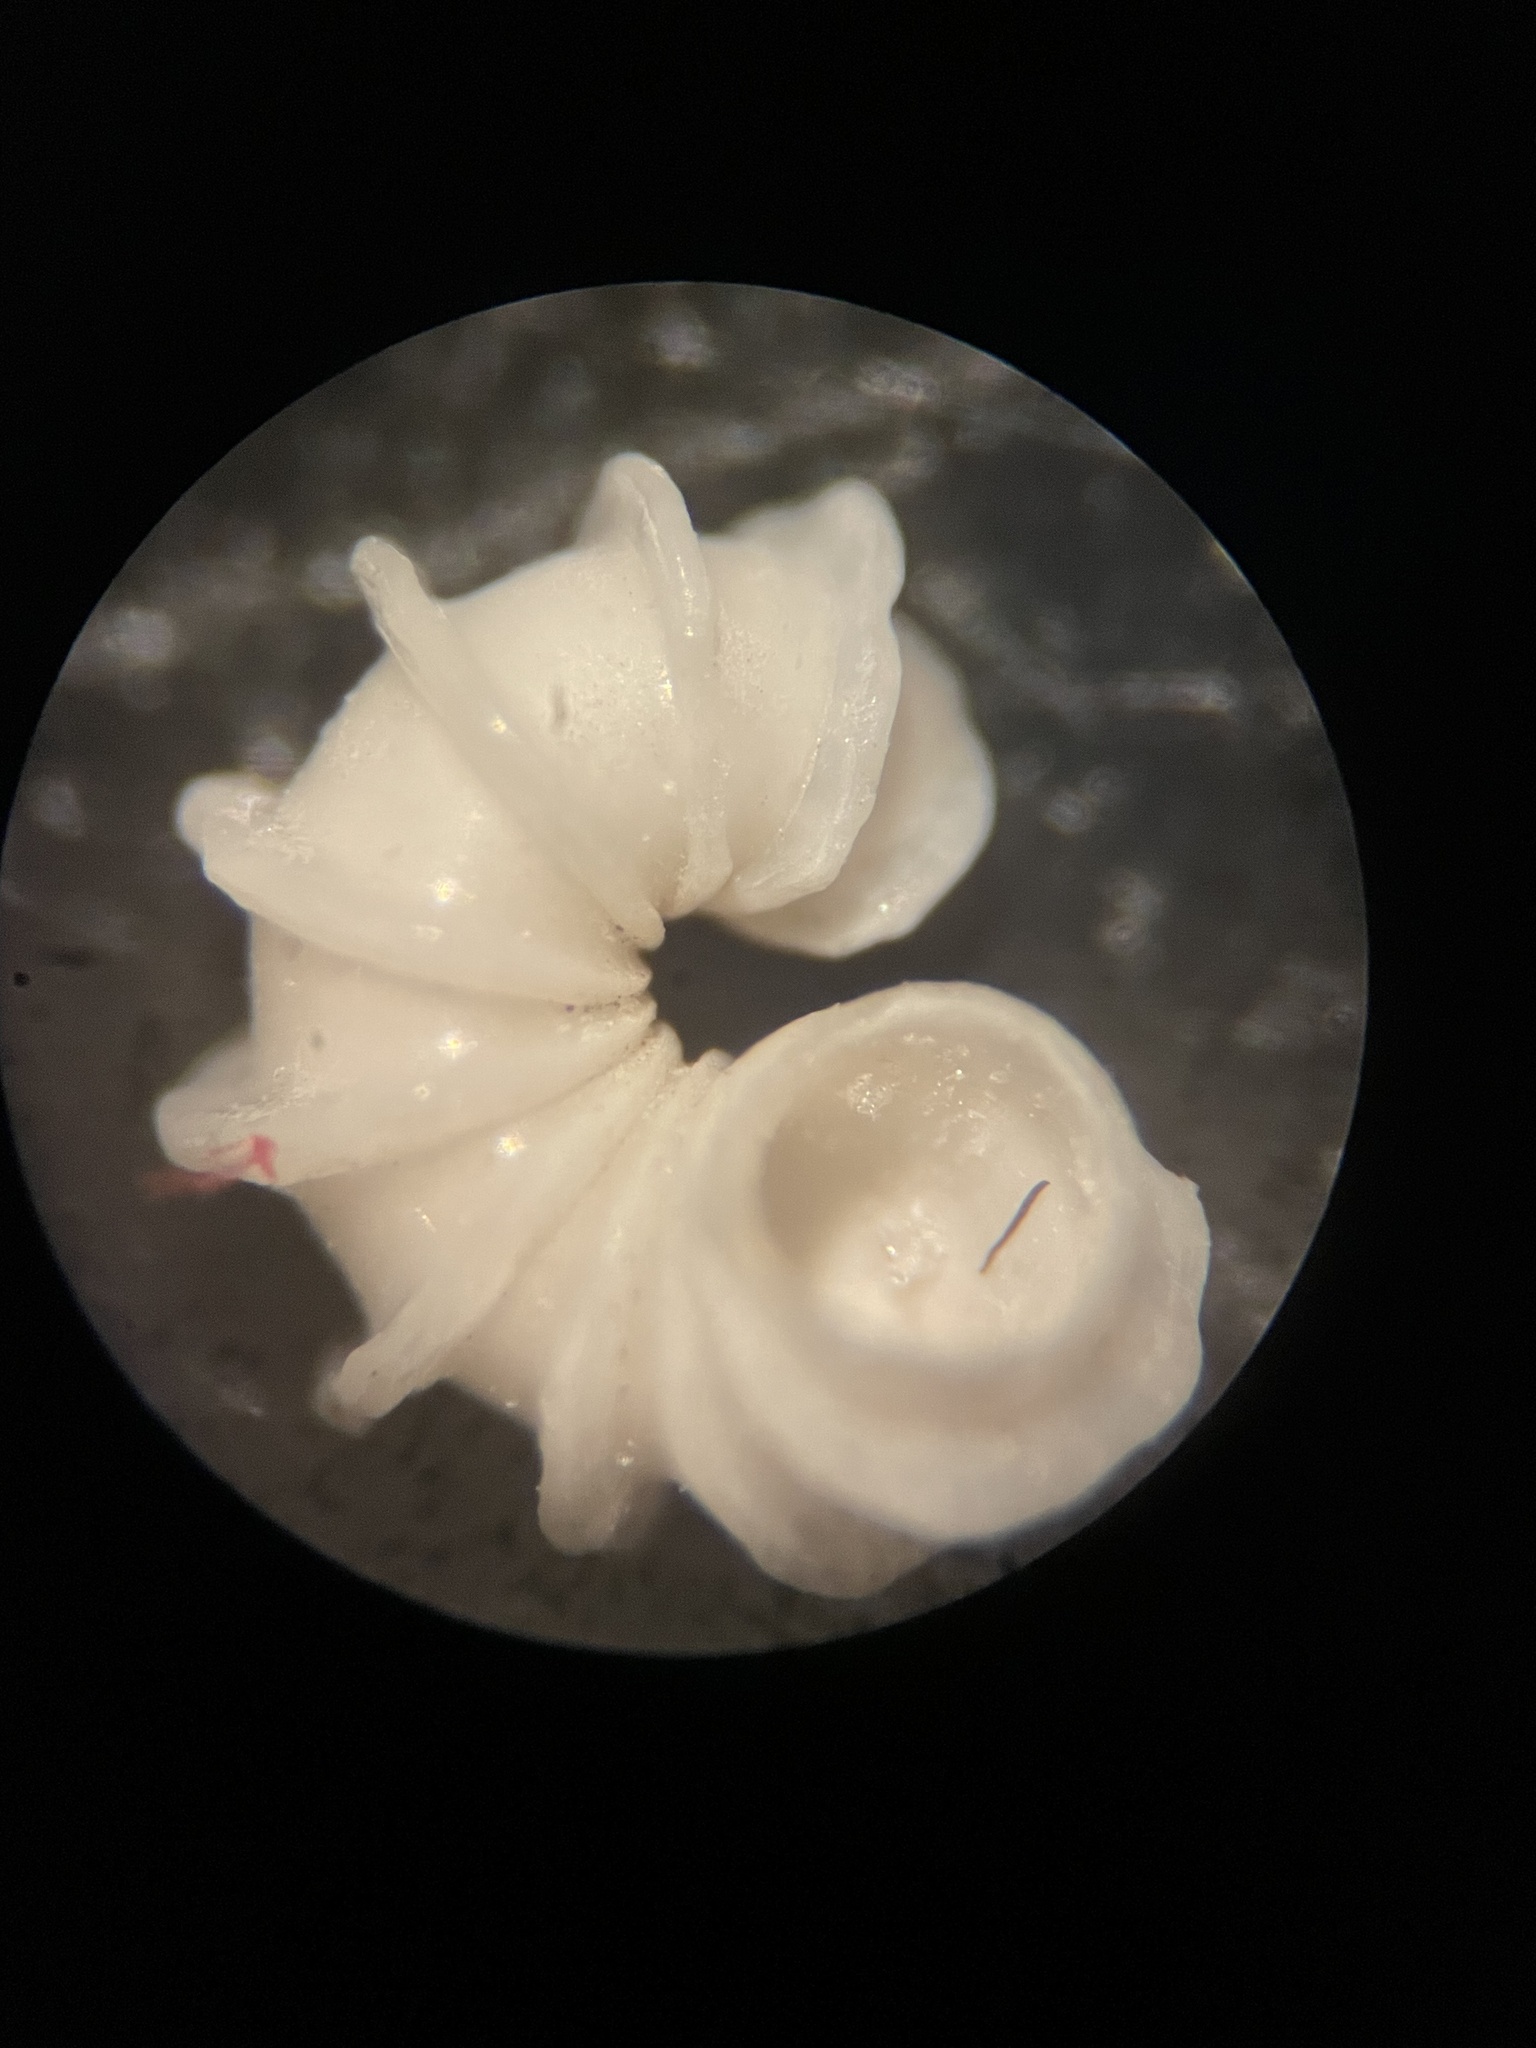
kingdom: Animalia
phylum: Mollusca
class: Gastropoda
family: Epitoniidae
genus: Cycloscala
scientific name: Cycloscala echinaticosta
